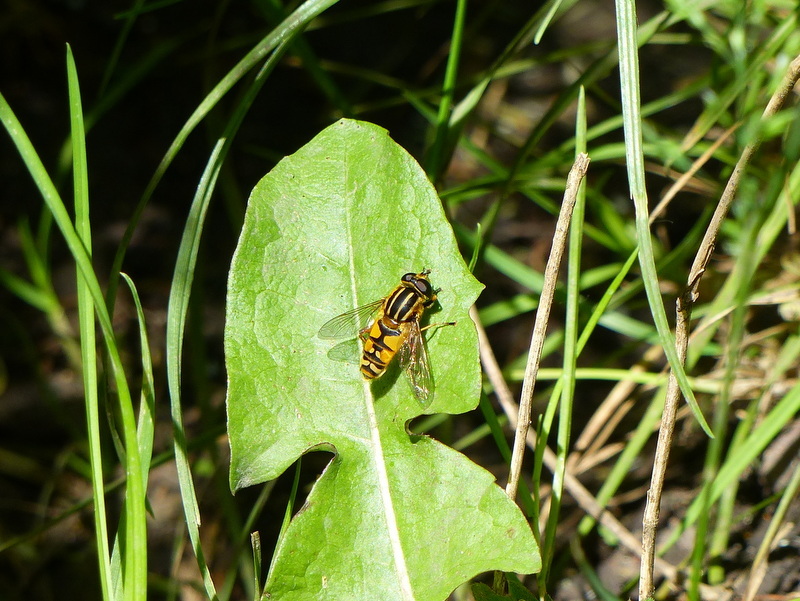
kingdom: Animalia
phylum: Arthropoda
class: Insecta
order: Diptera
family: Syrphidae
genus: Helophilus
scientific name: Helophilus pendulus
